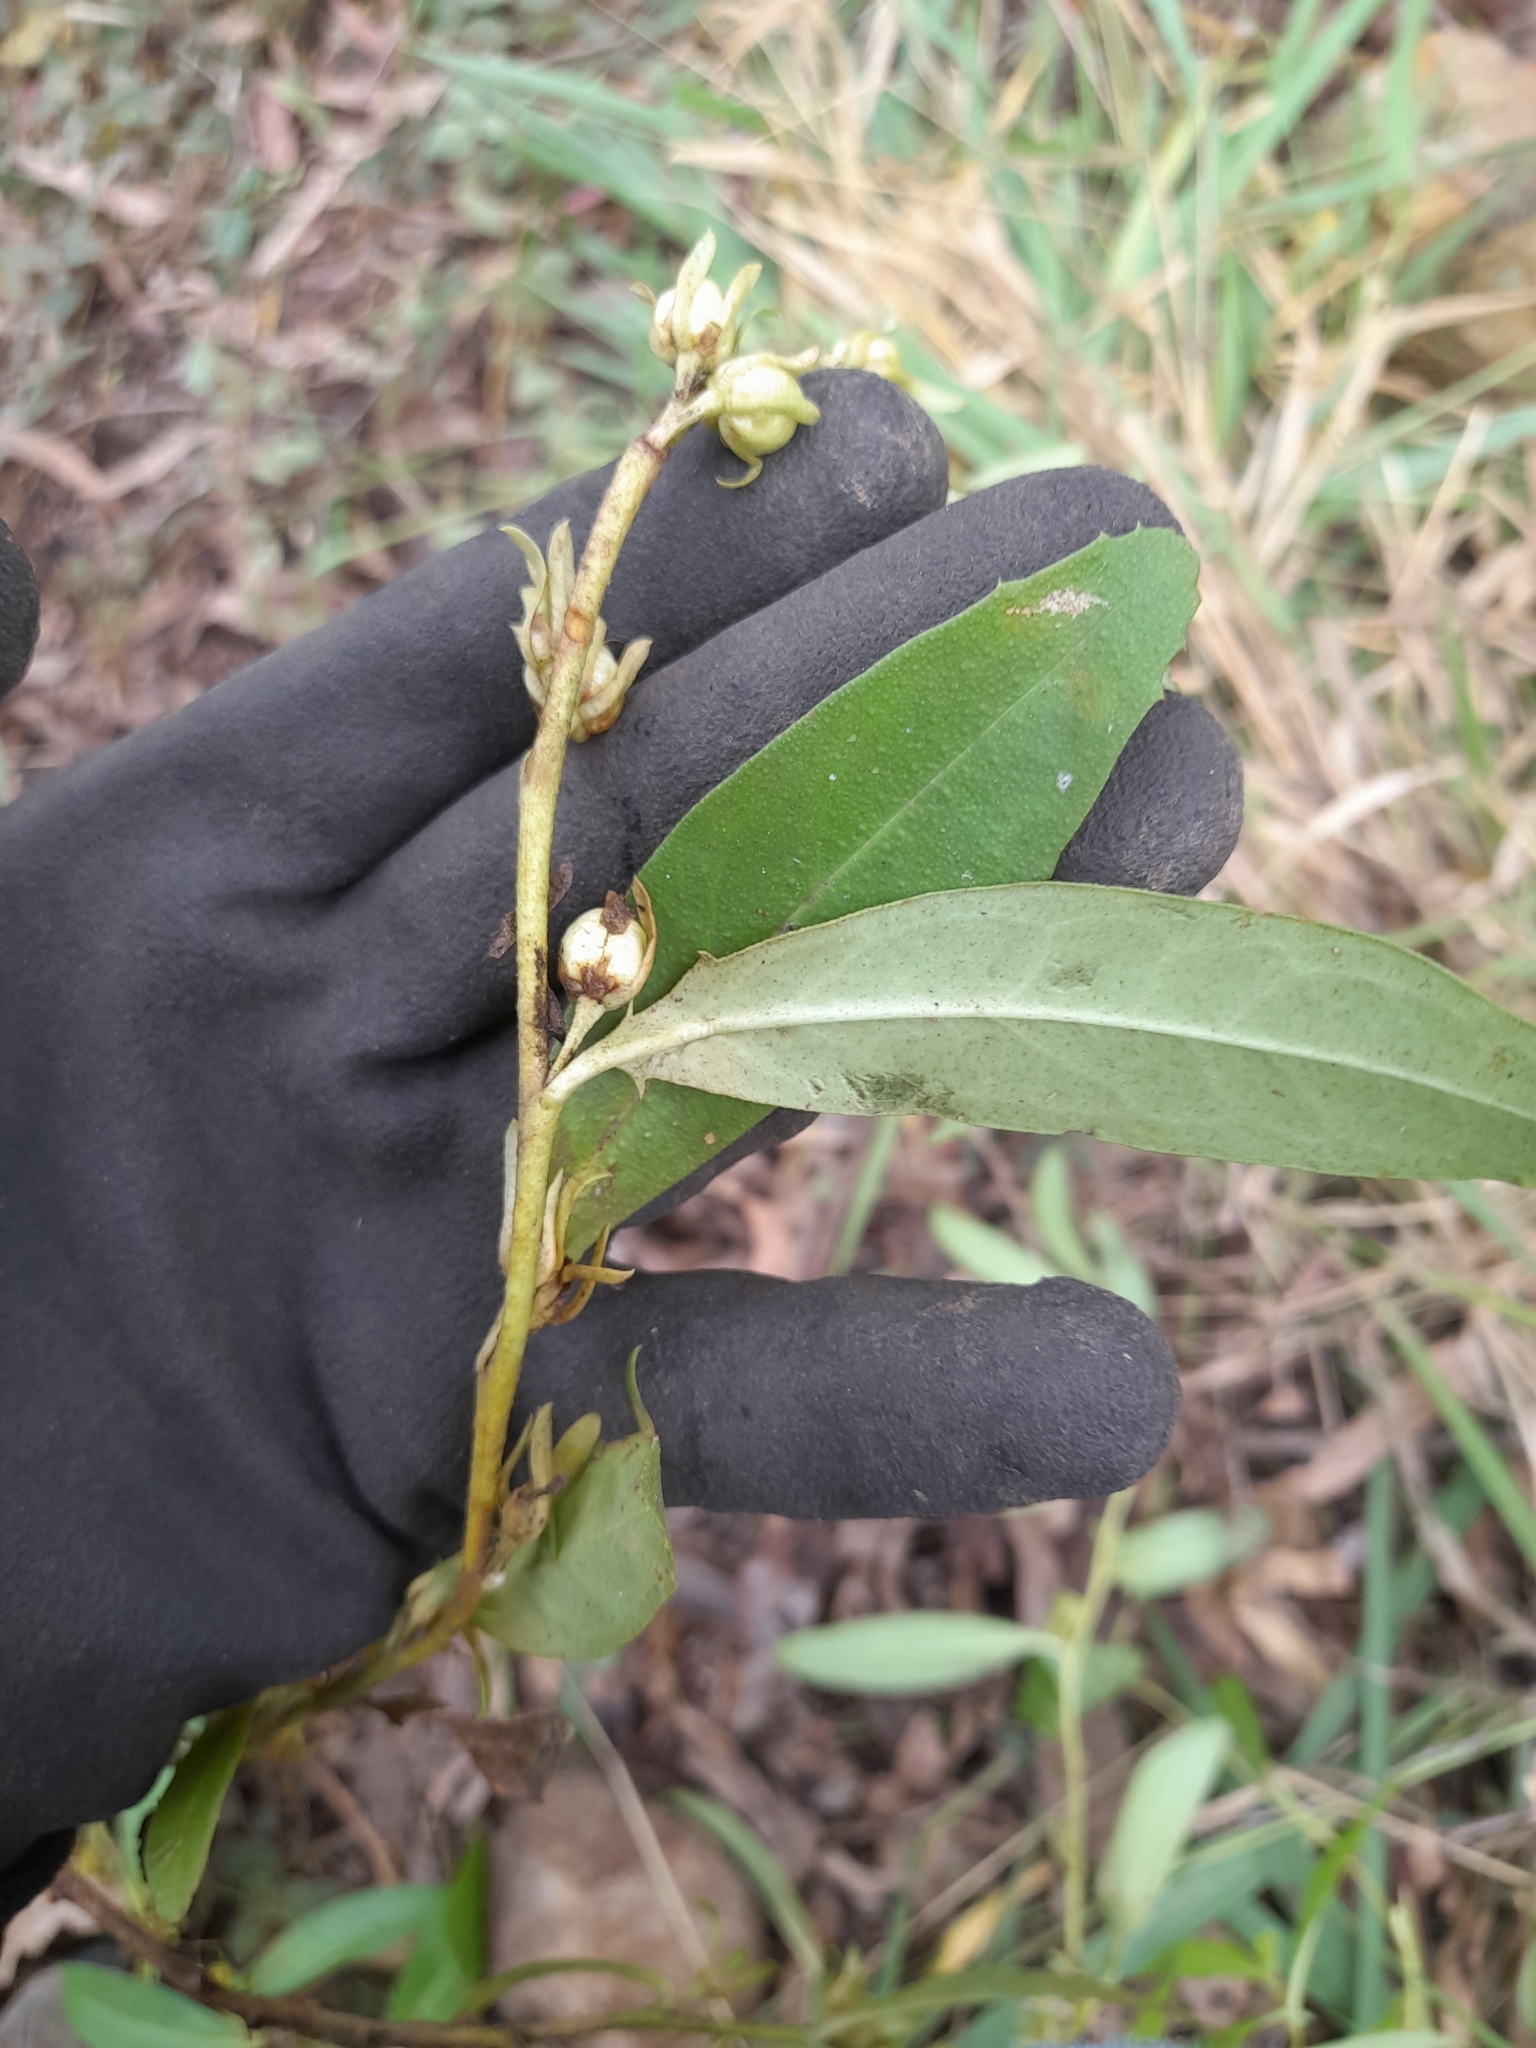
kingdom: Plantae
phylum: Tracheophyta
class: Magnoliopsida
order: Lamiales
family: Scrophulariaceae
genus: Eremophila
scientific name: Eremophila debilis
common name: Winter-apple
